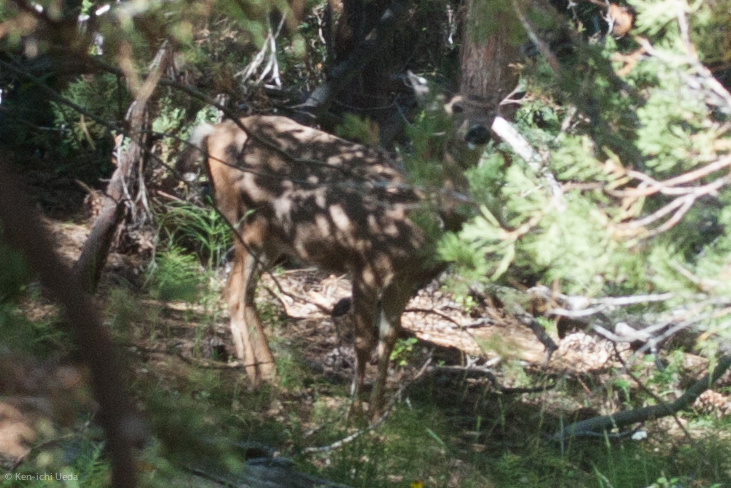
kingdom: Animalia
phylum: Chordata
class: Mammalia
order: Artiodactyla
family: Cervidae
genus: Odocoileus
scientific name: Odocoileus hemionus
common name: Mule deer
